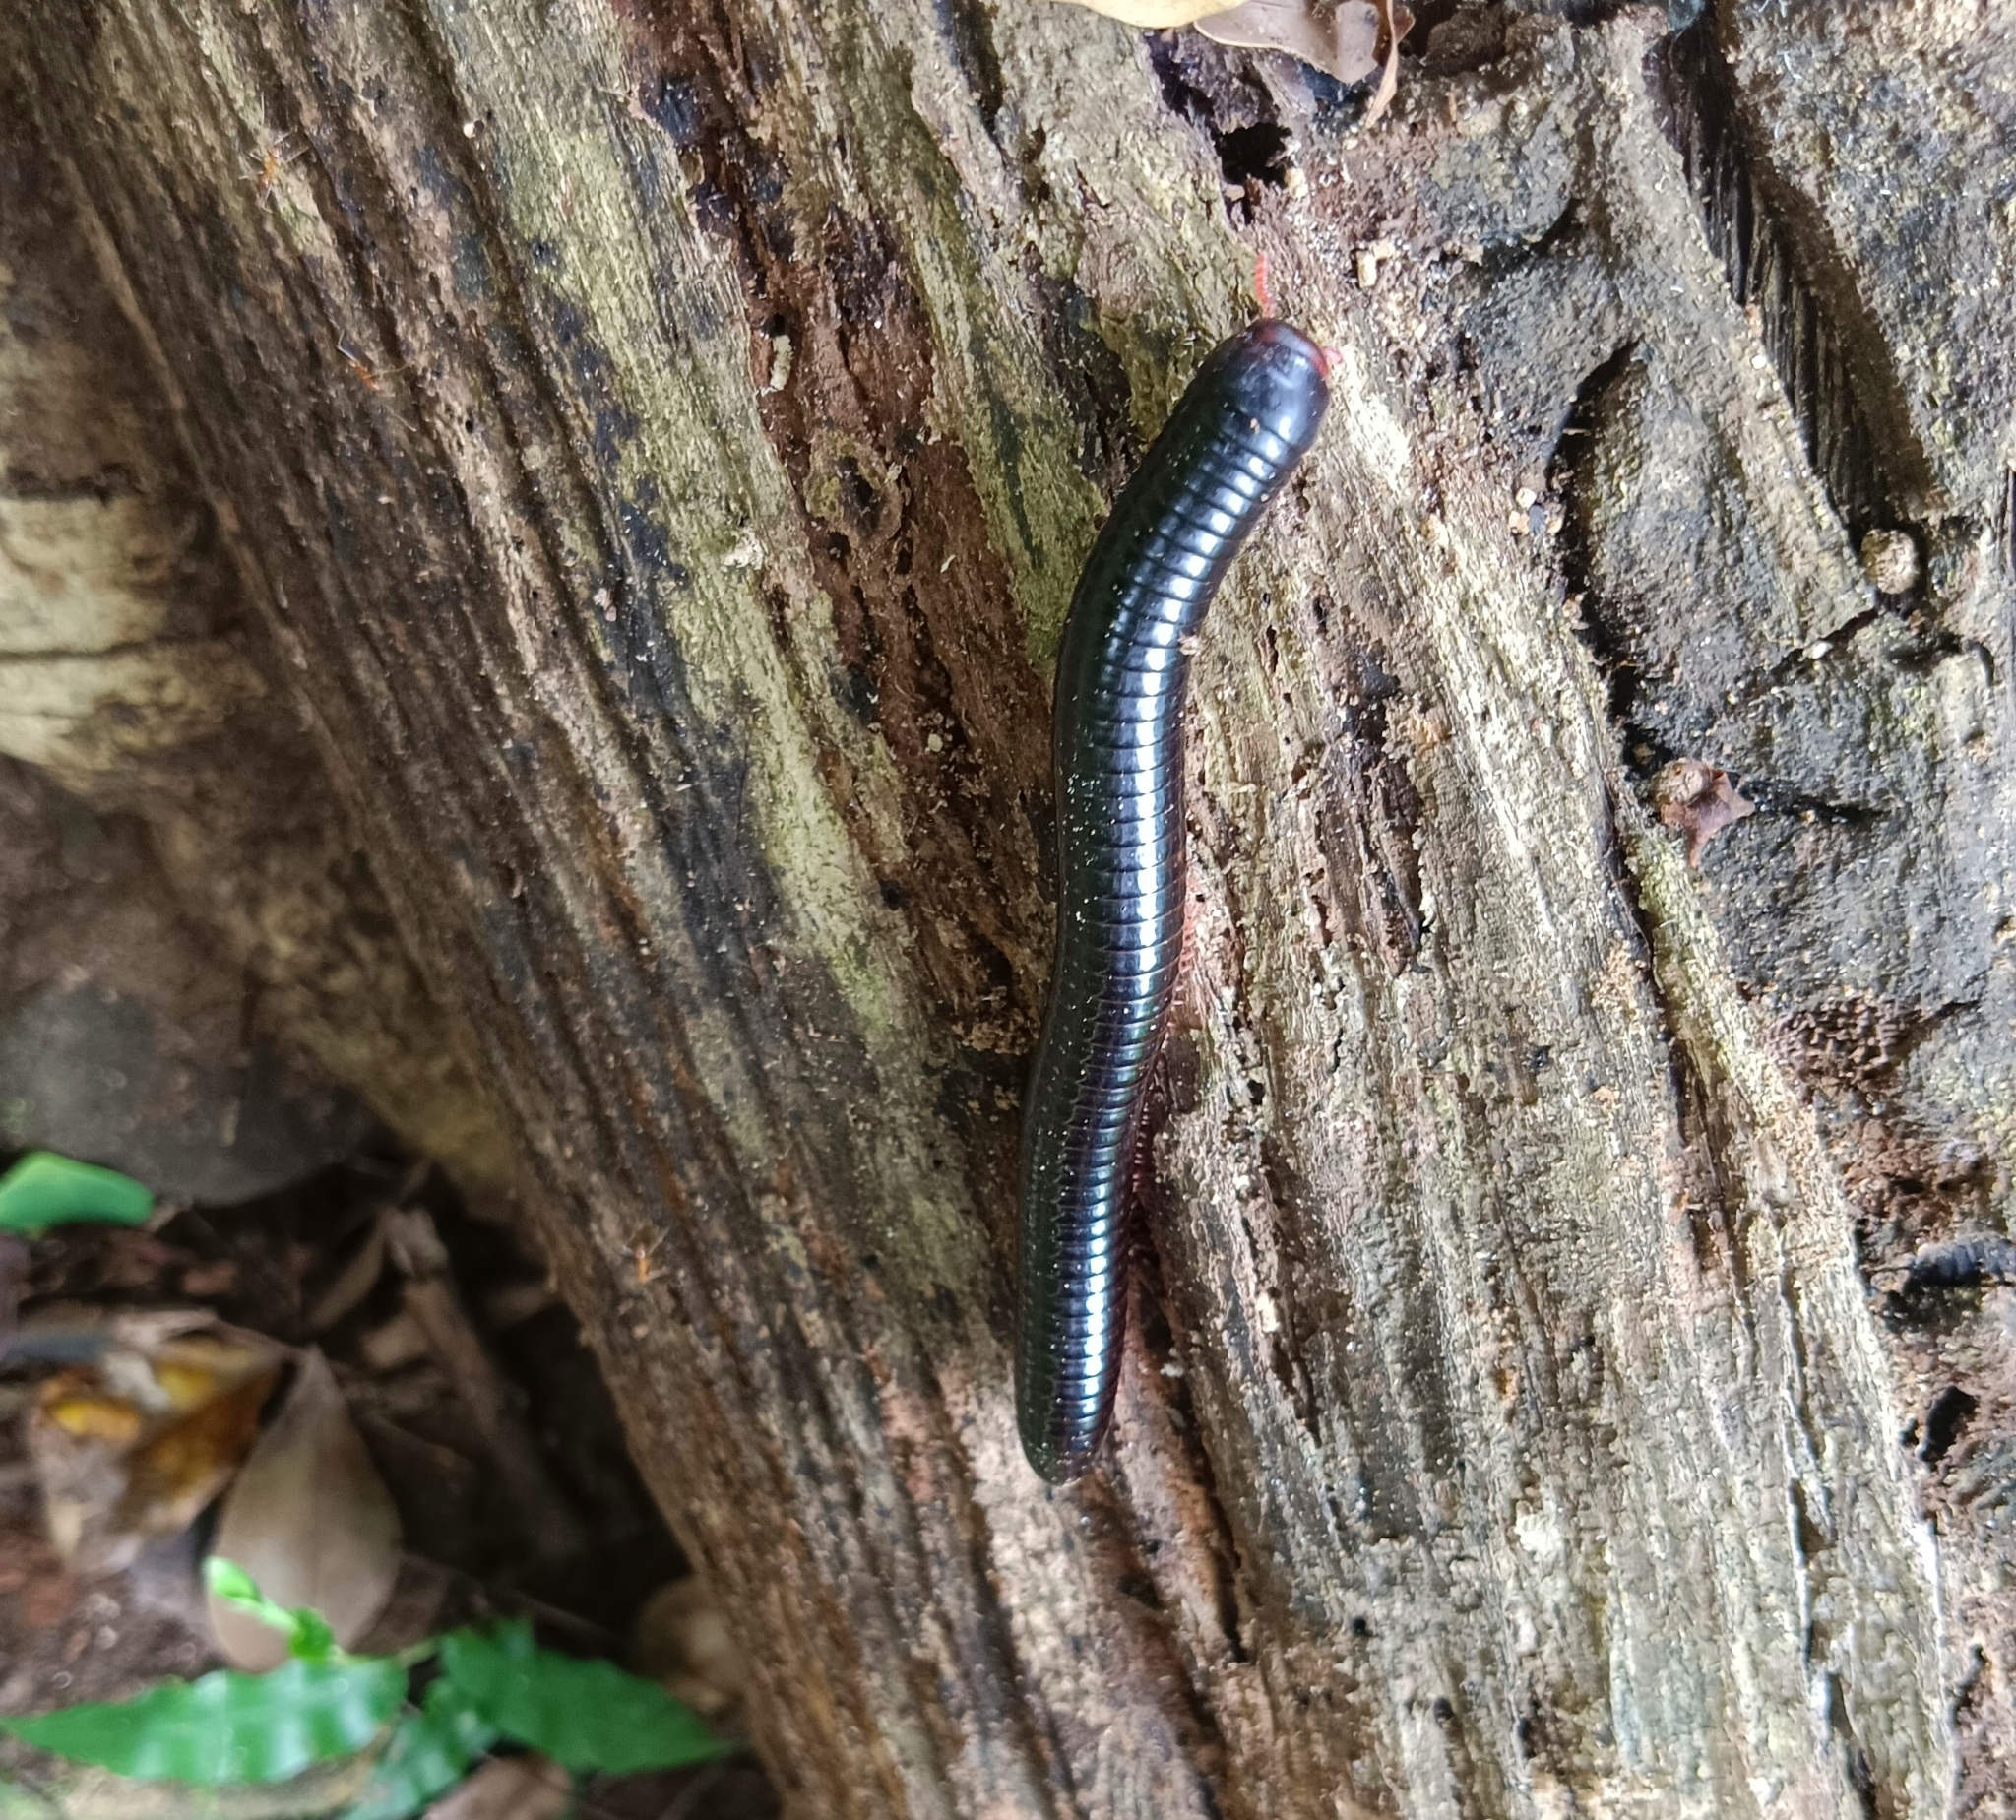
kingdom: Animalia
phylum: Arthropoda
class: Diplopoda
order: Spirostreptida
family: Harpagophoridae
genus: Phyllogonostreptus
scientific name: Phyllogonostreptus nigrolabiatus
